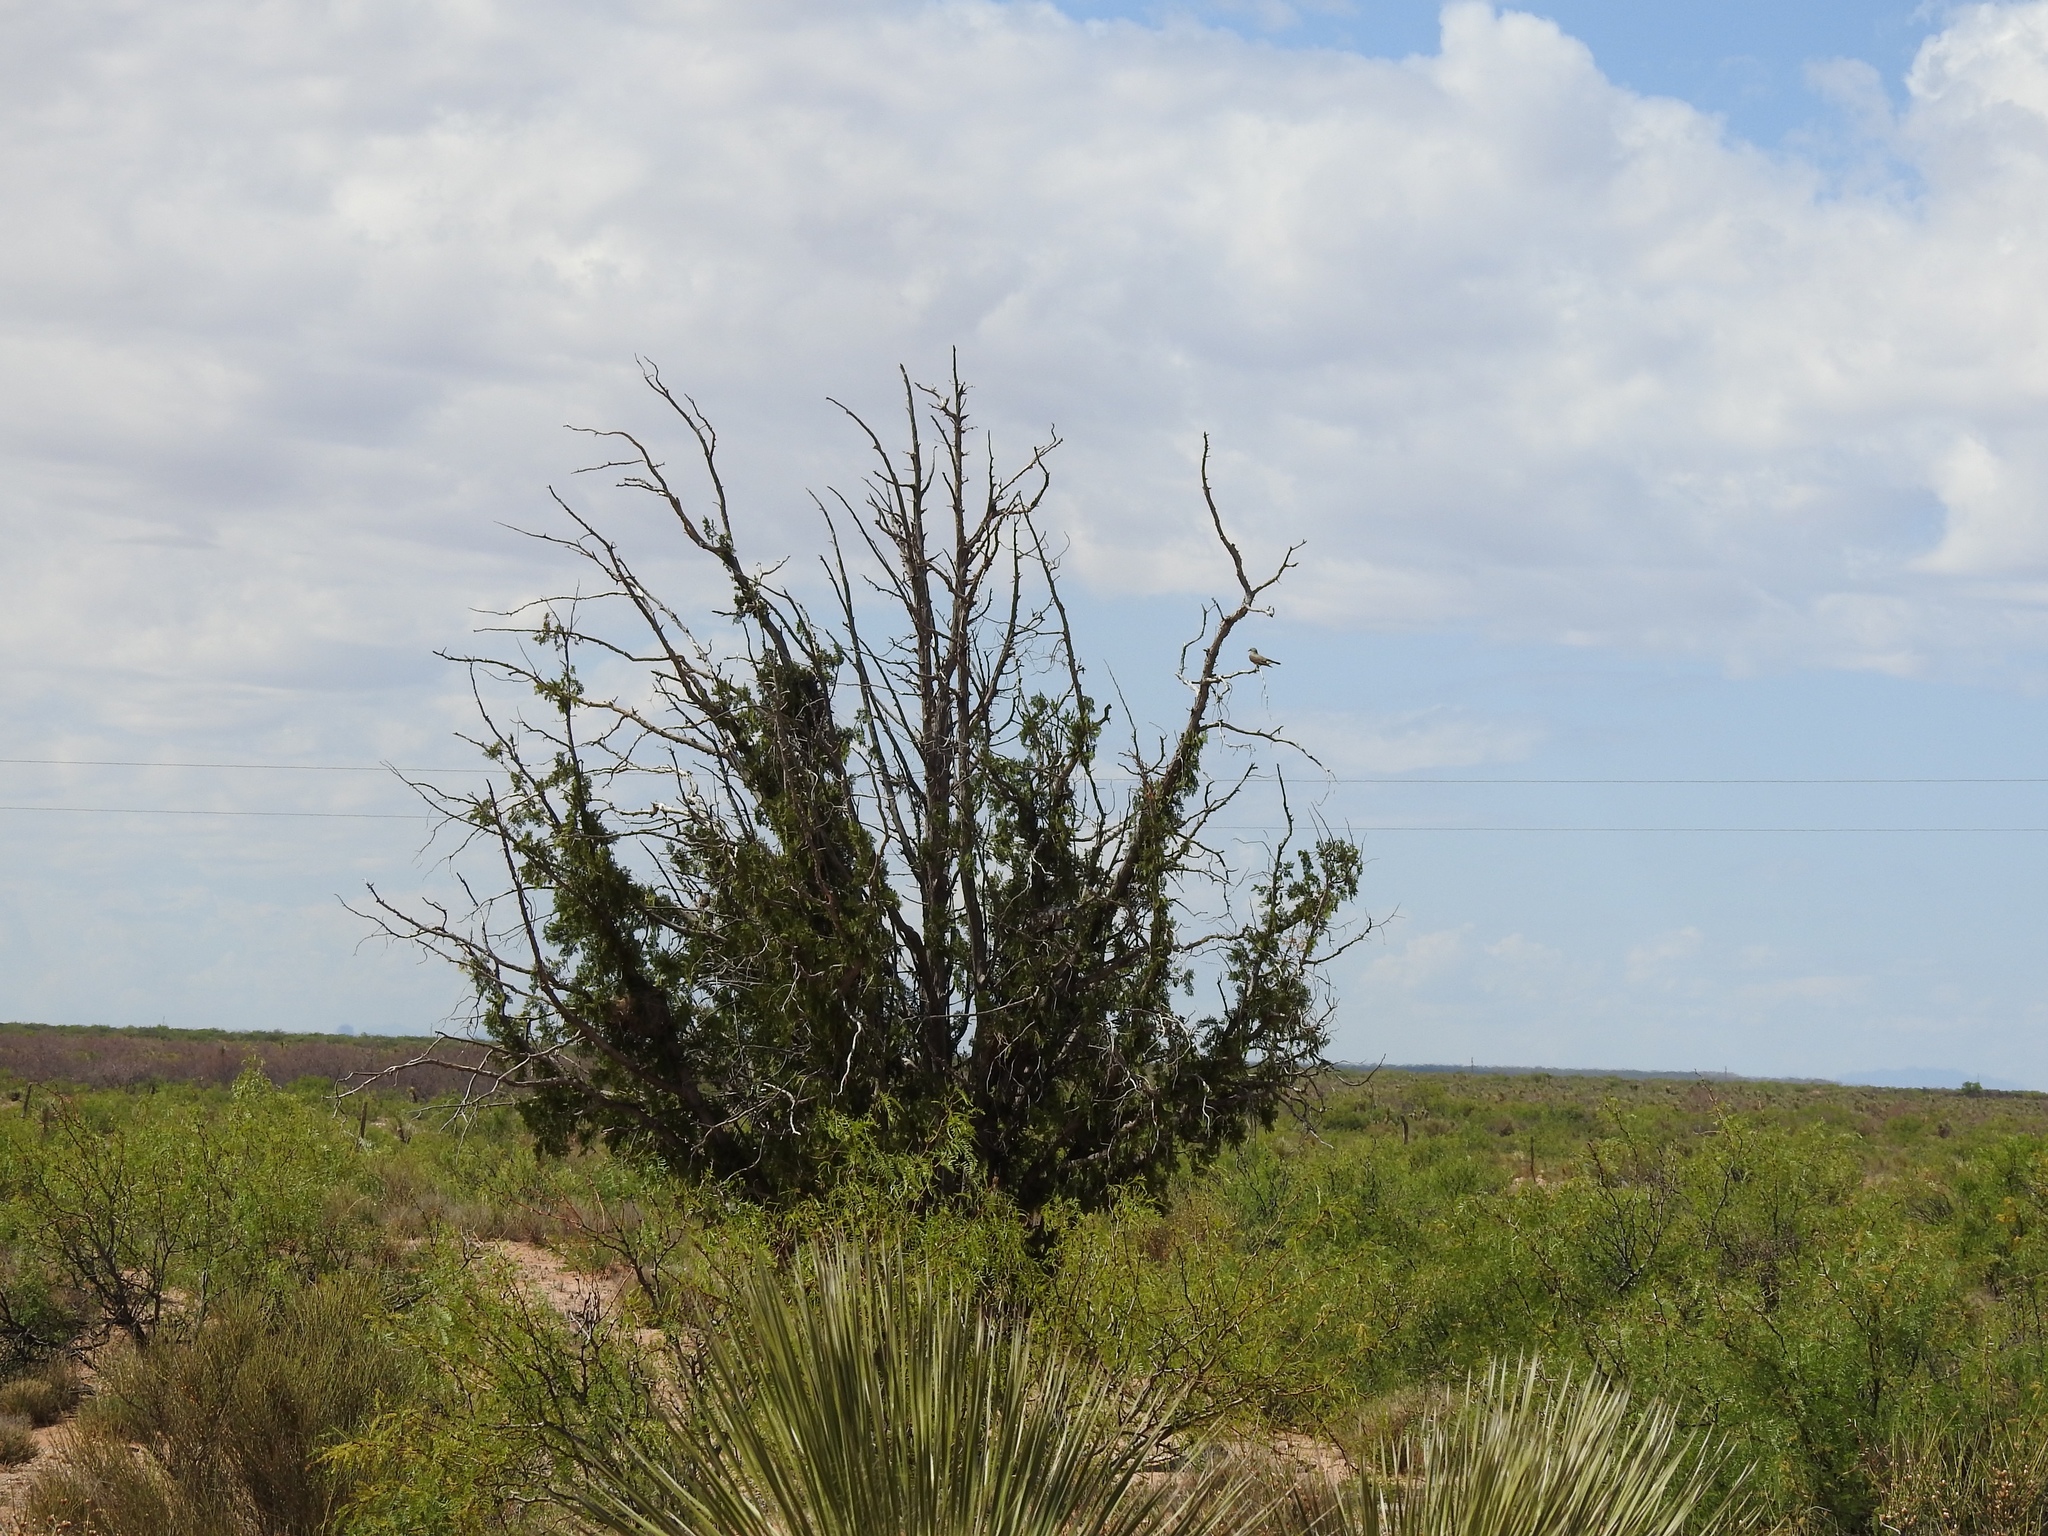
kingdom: Plantae
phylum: Tracheophyta
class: Pinopsida
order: Pinales
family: Cupressaceae
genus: Juniperus
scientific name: Juniperus monosperma
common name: One-seed juniper
